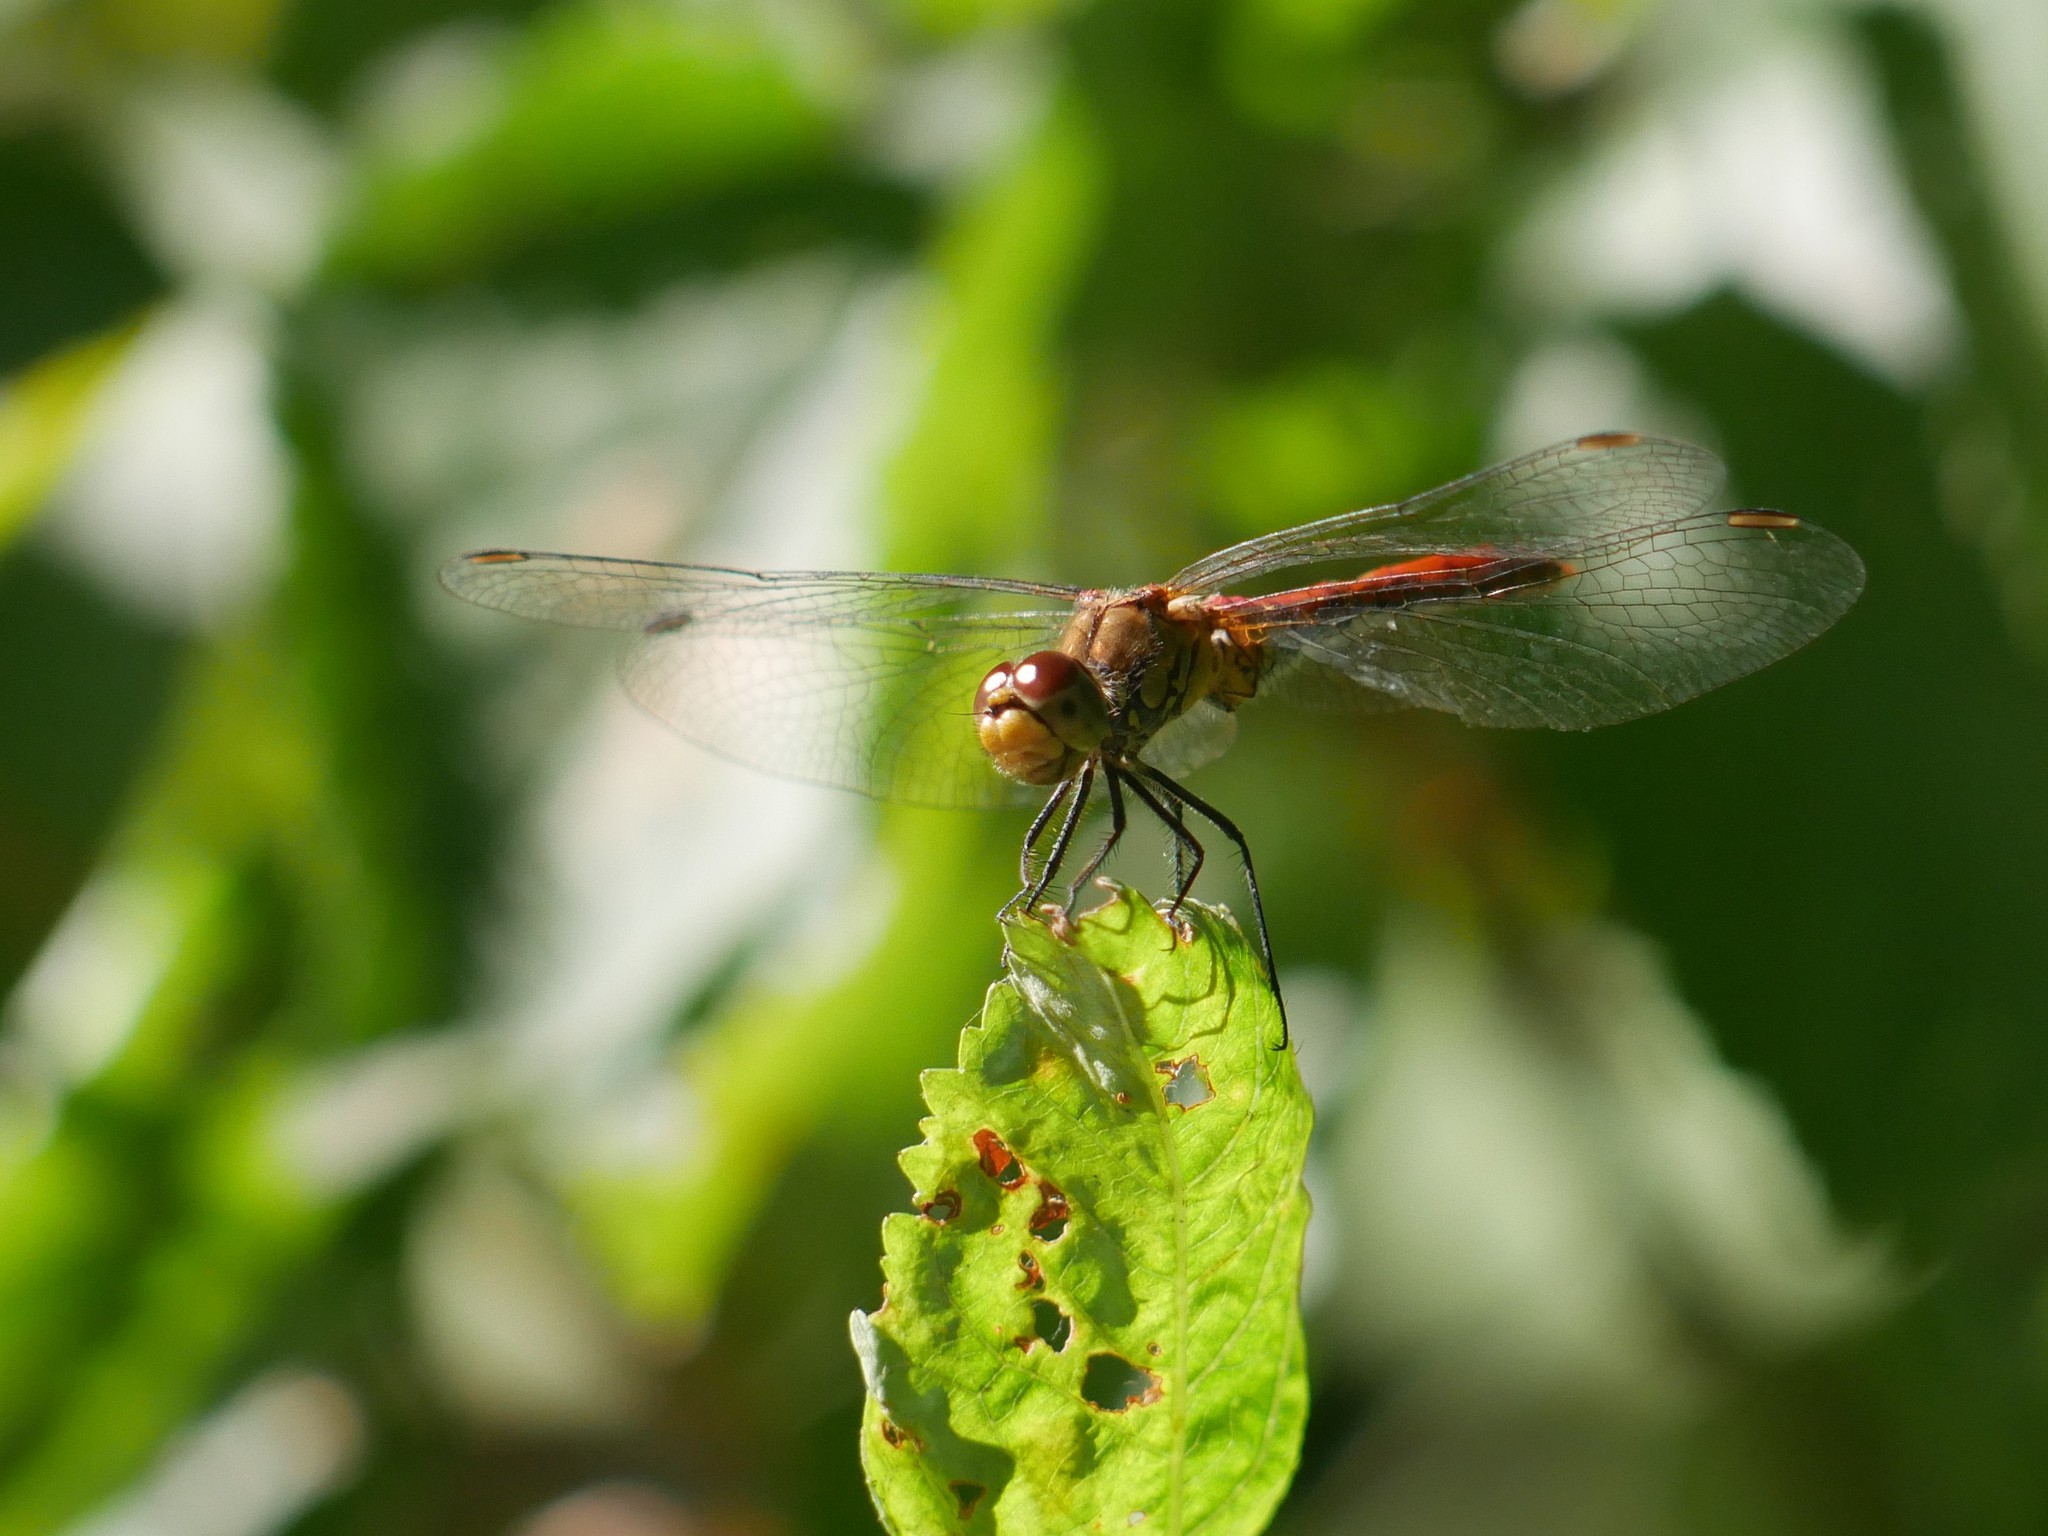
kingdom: Animalia
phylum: Arthropoda
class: Insecta
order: Odonata
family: Libellulidae
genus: Sympetrum
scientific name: Sympetrum sanguineum
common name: Ruddy darter
